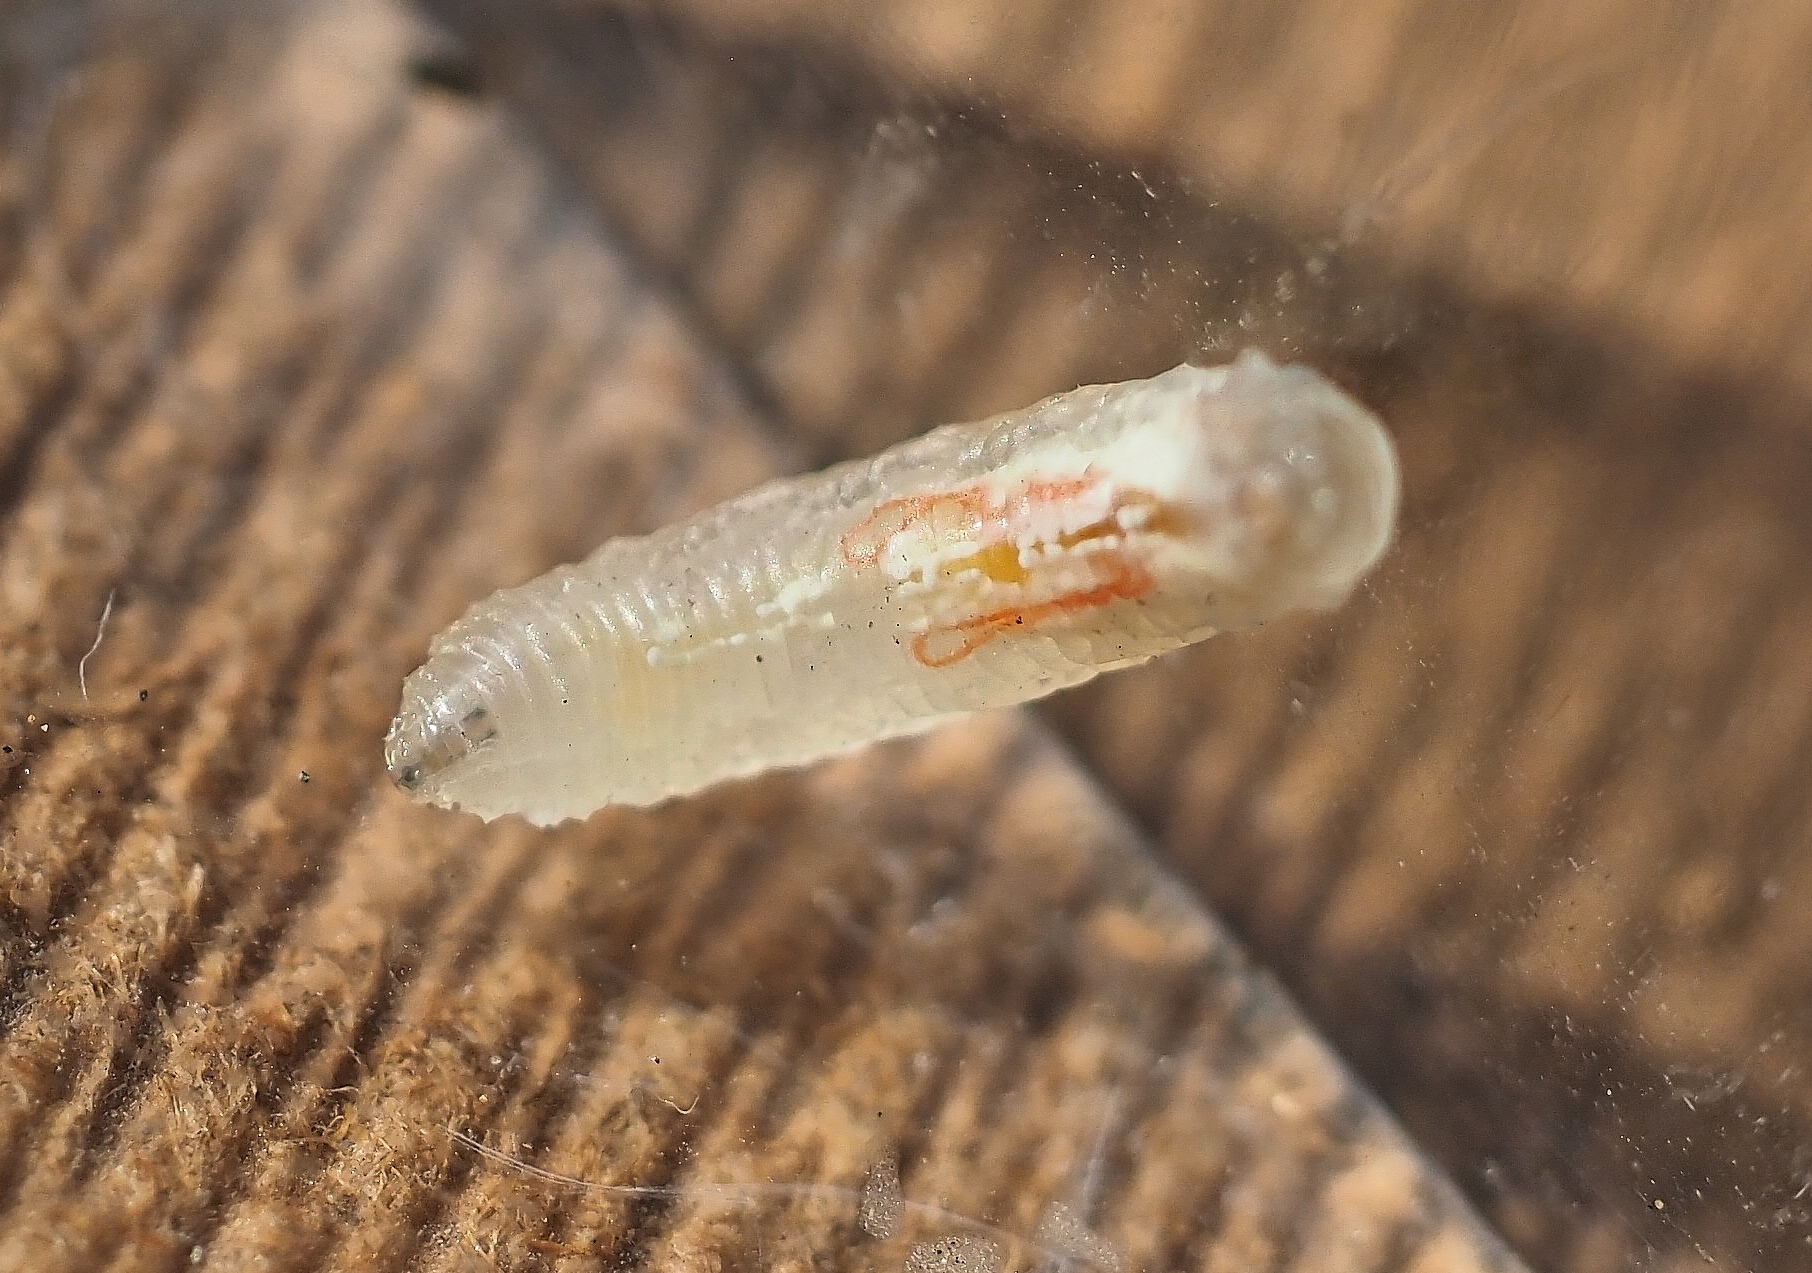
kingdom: Animalia
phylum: Arthropoda
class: Insecta
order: Diptera
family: Syrphidae
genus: Episyrphus
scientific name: Episyrphus balteatus
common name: Marmalade hoverfly
